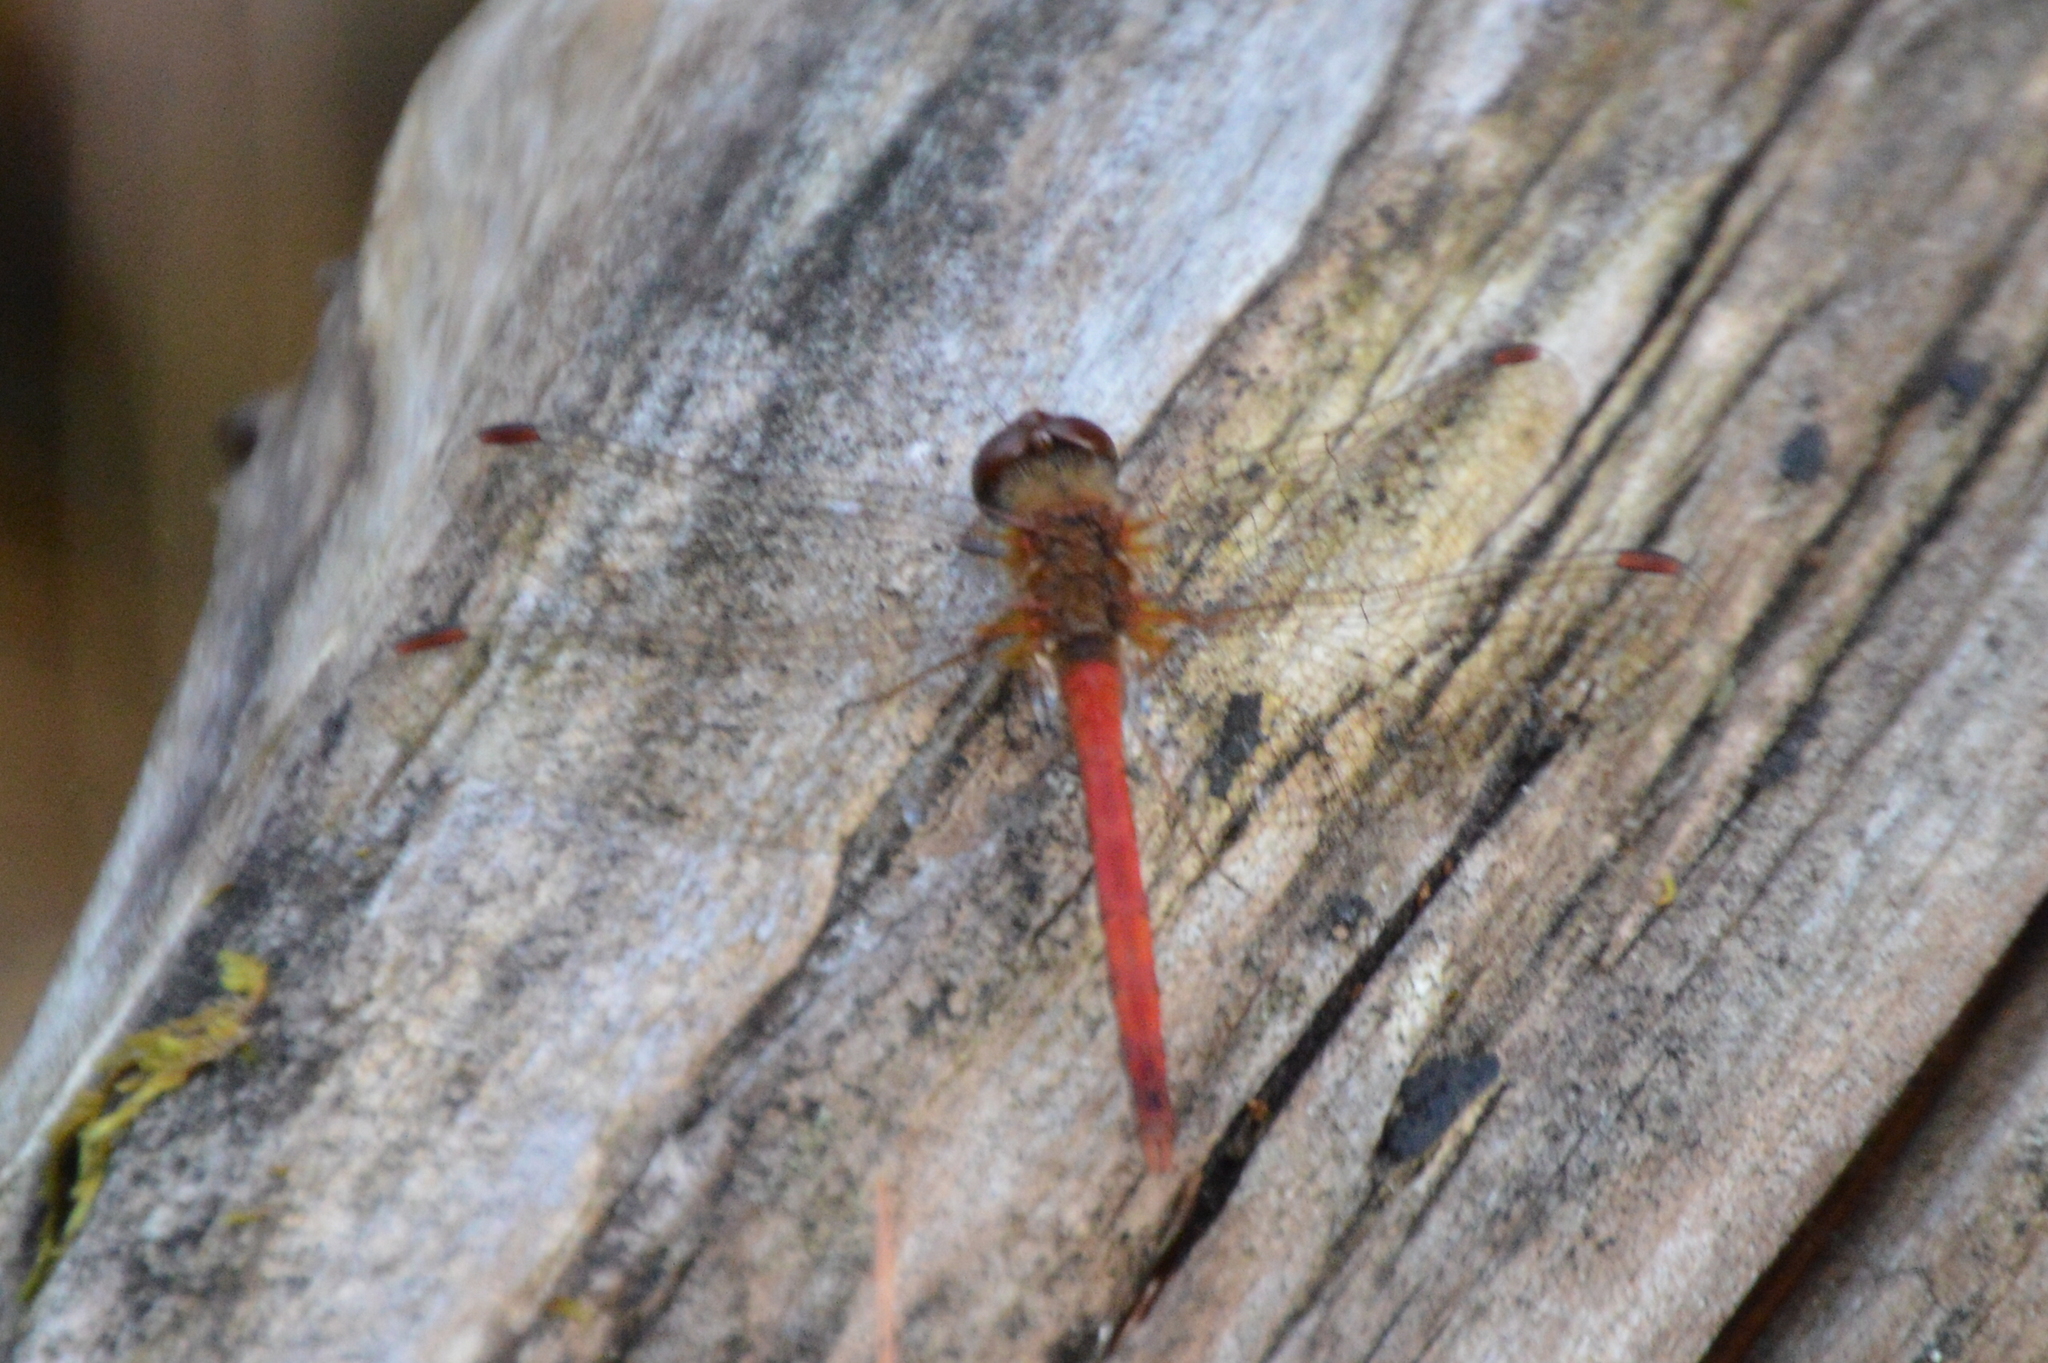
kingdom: Animalia
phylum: Arthropoda
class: Insecta
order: Odonata
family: Libellulidae
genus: Sympetrum
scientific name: Sympetrum vicinum
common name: Autumn meadowhawk
